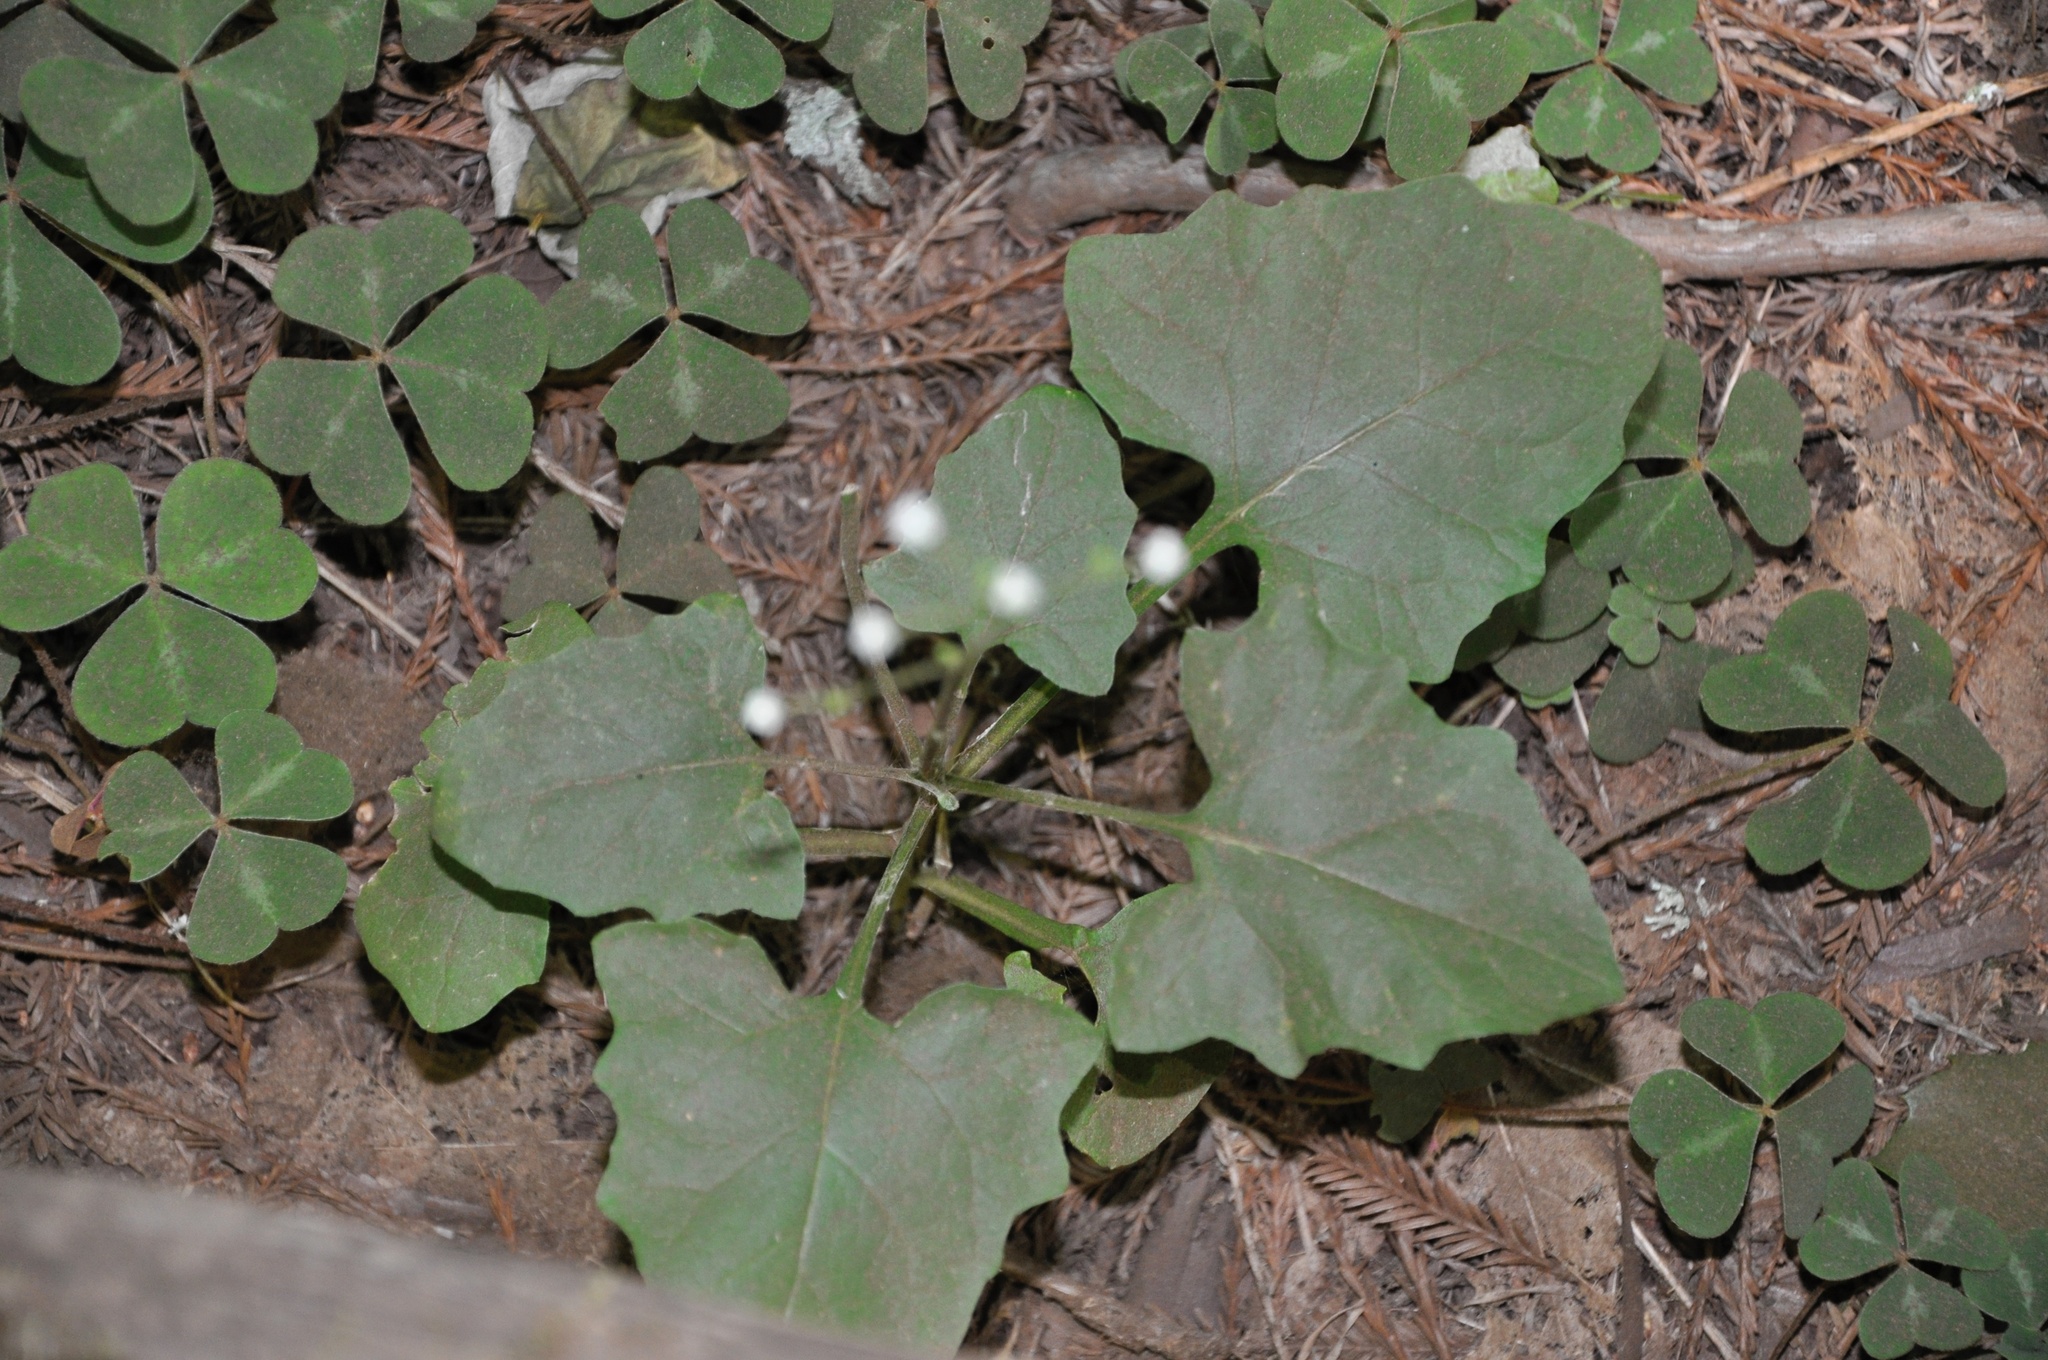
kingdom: Plantae
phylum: Tracheophyta
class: Magnoliopsida
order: Asterales
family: Asteraceae
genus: Adenocaulon
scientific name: Adenocaulon bicolor
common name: Trailplant
